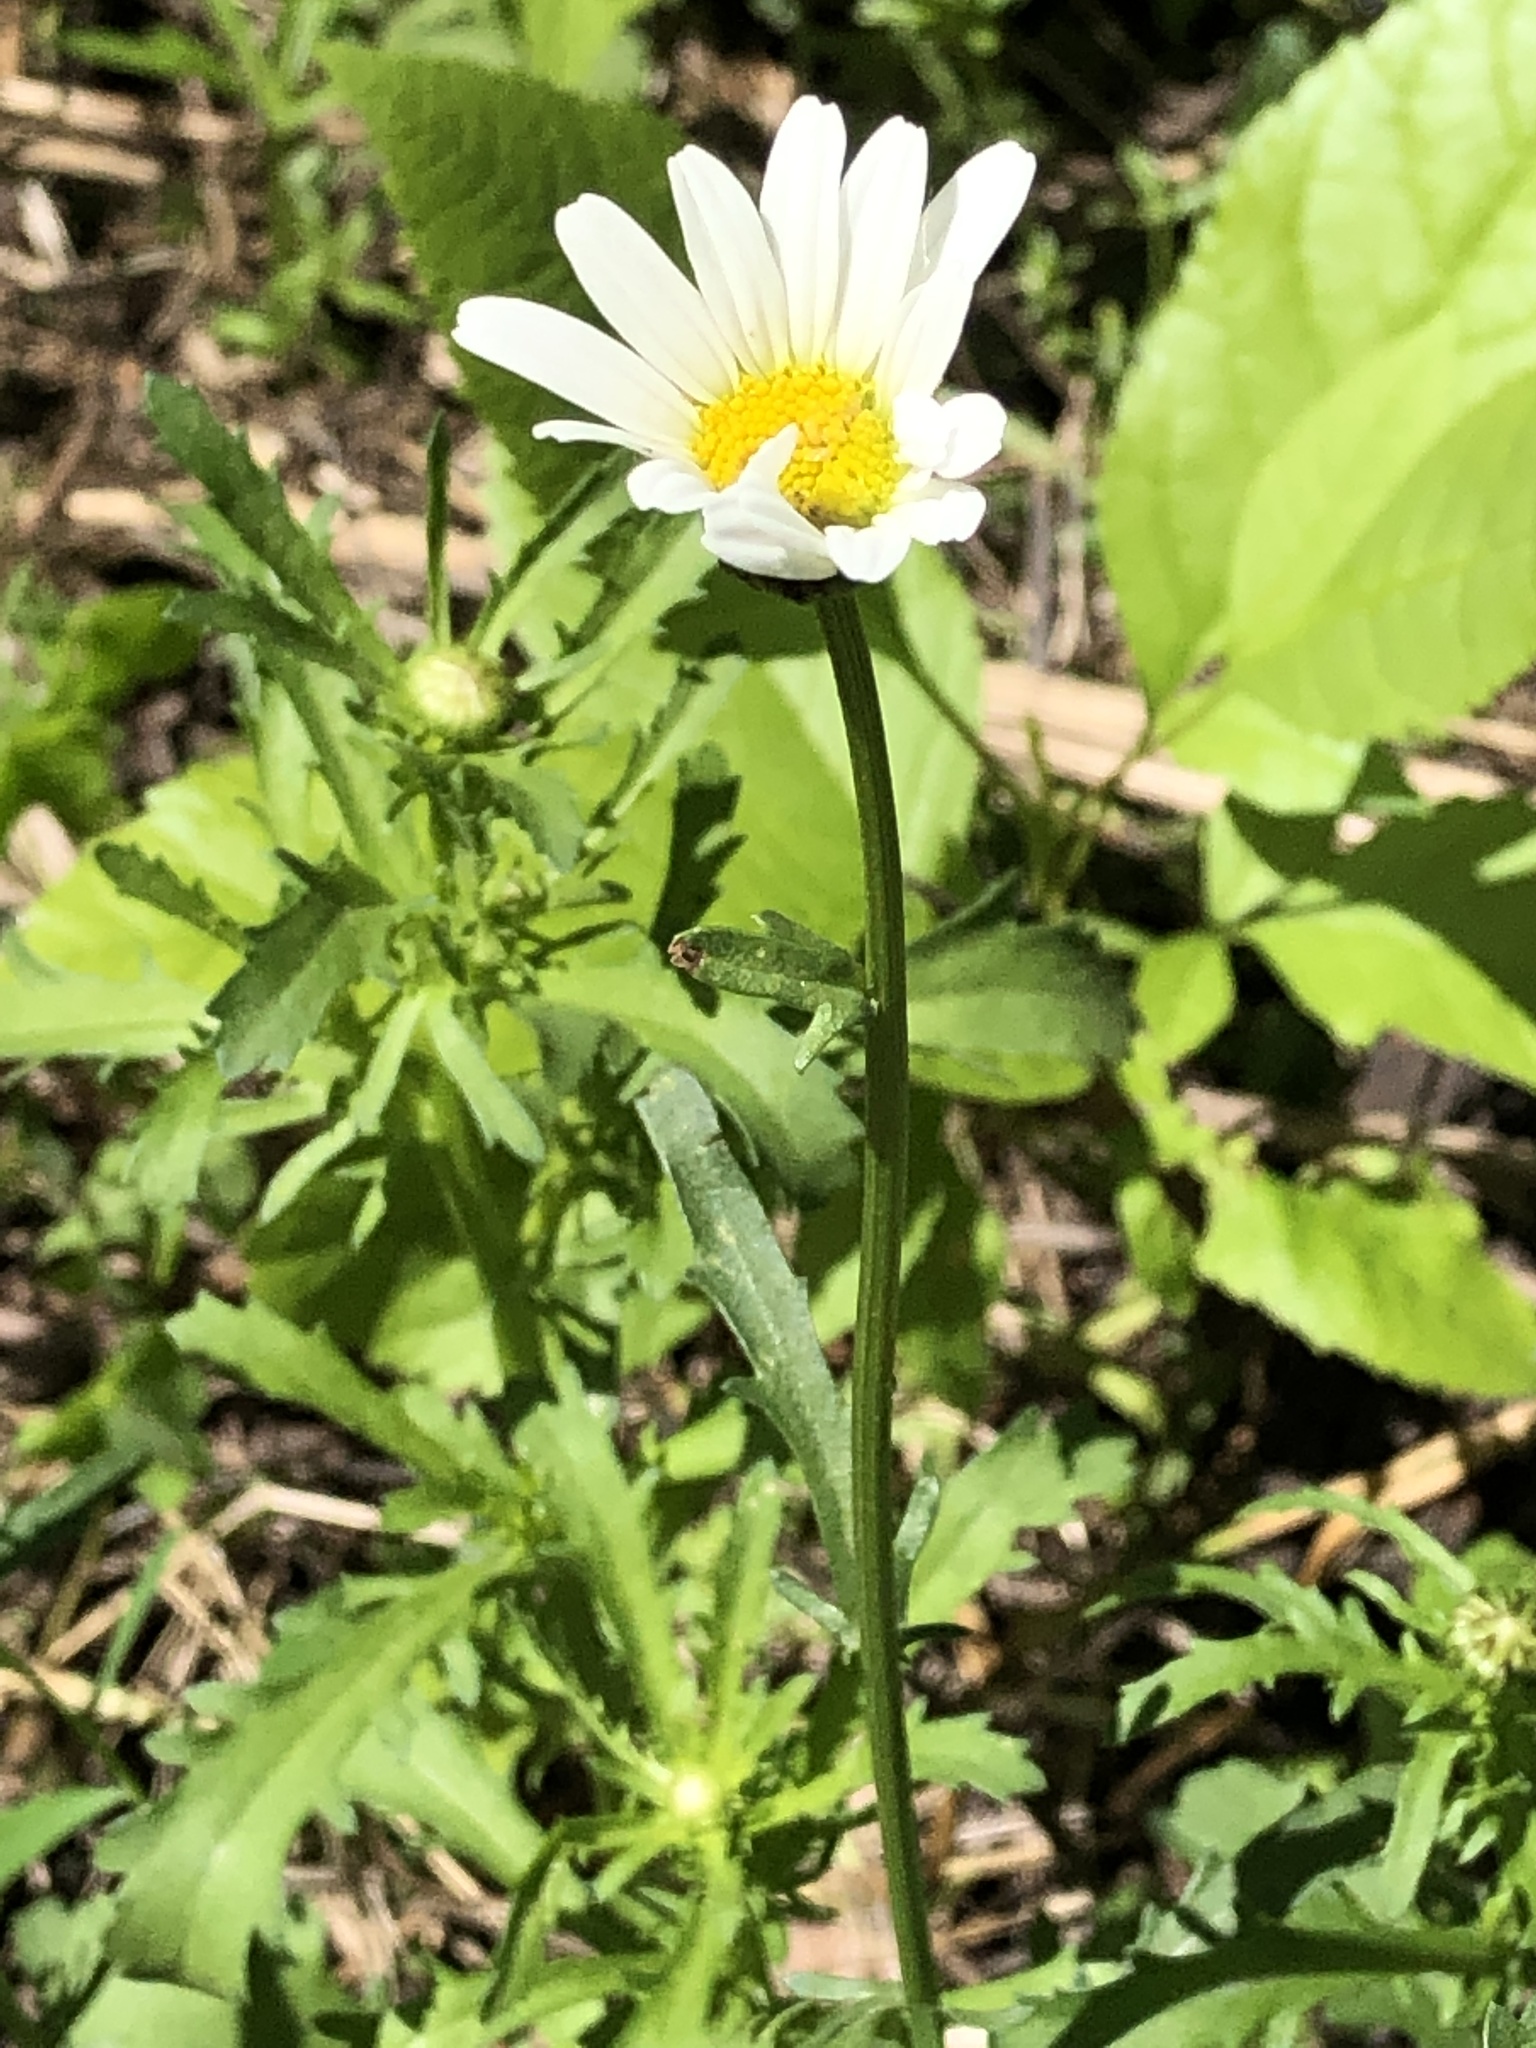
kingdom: Plantae
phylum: Tracheophyta
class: Magnoliopsida
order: Asterales
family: Asteraceae
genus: Leucanthemum
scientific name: Leucanthemum vulgare
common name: Oxeye daisy
